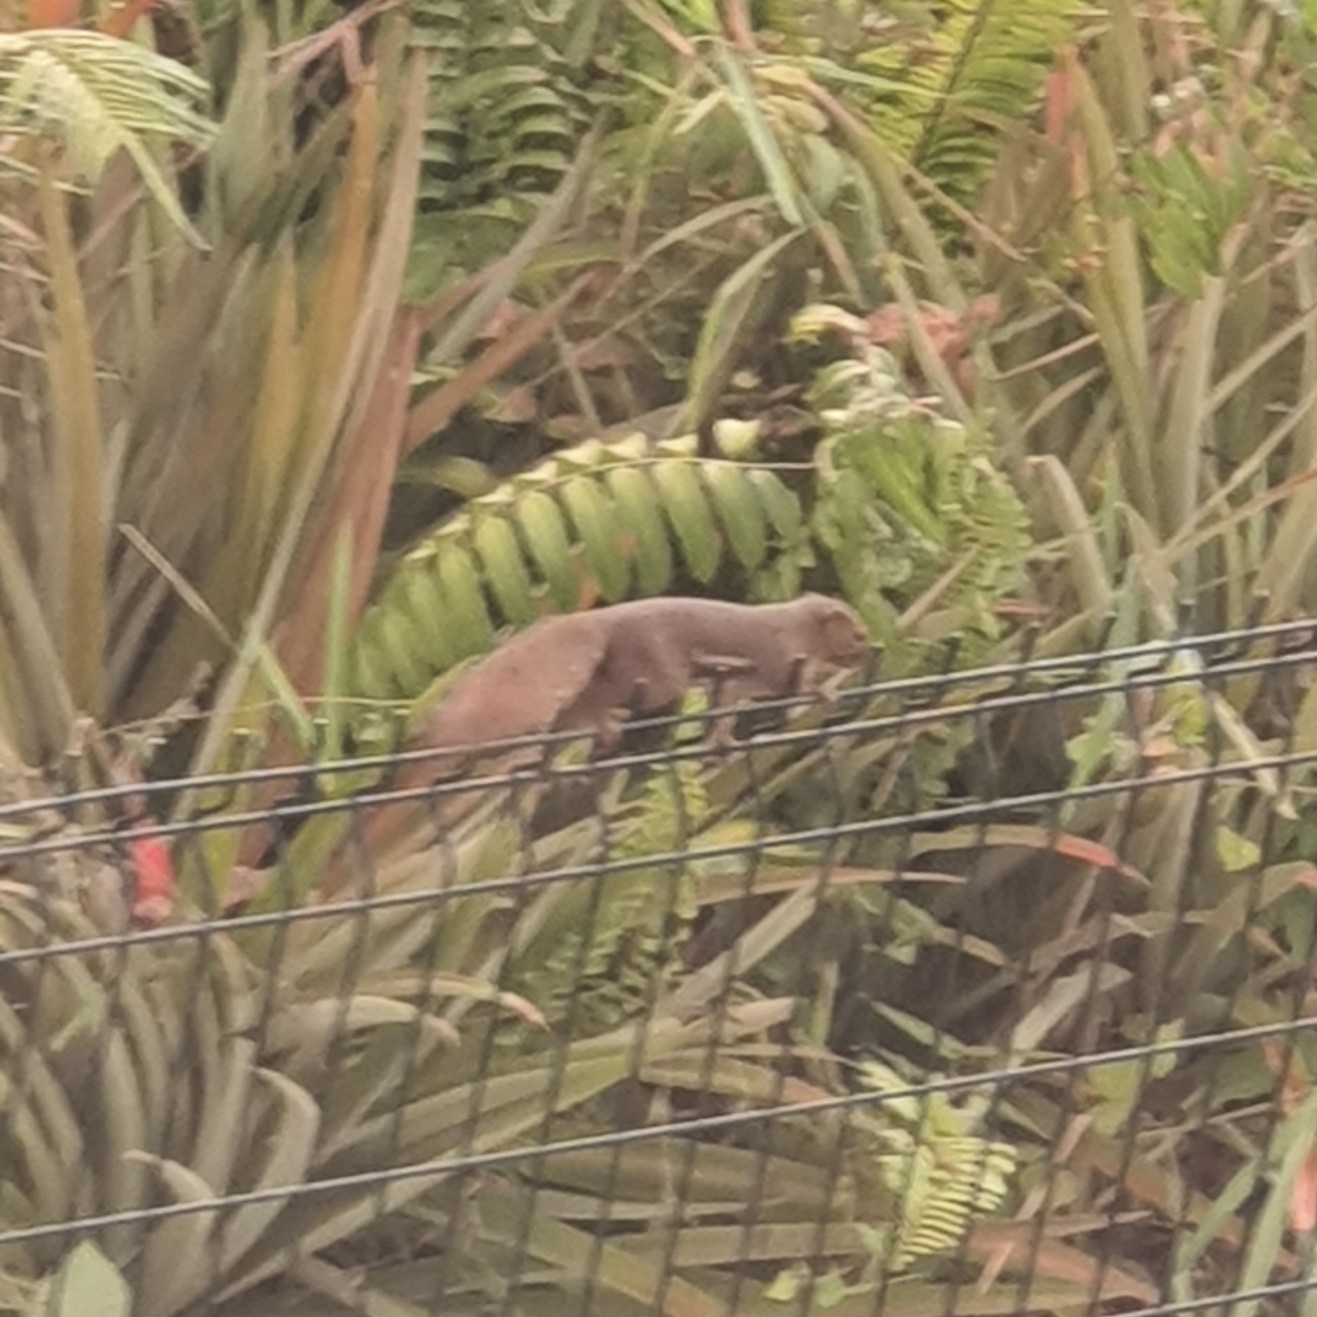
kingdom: Animalia
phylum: Chordata
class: Mammalia
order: Rodentia
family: Sciuridae
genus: Callosciurus
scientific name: Callosciurus notatus
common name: Plantain squirrel
